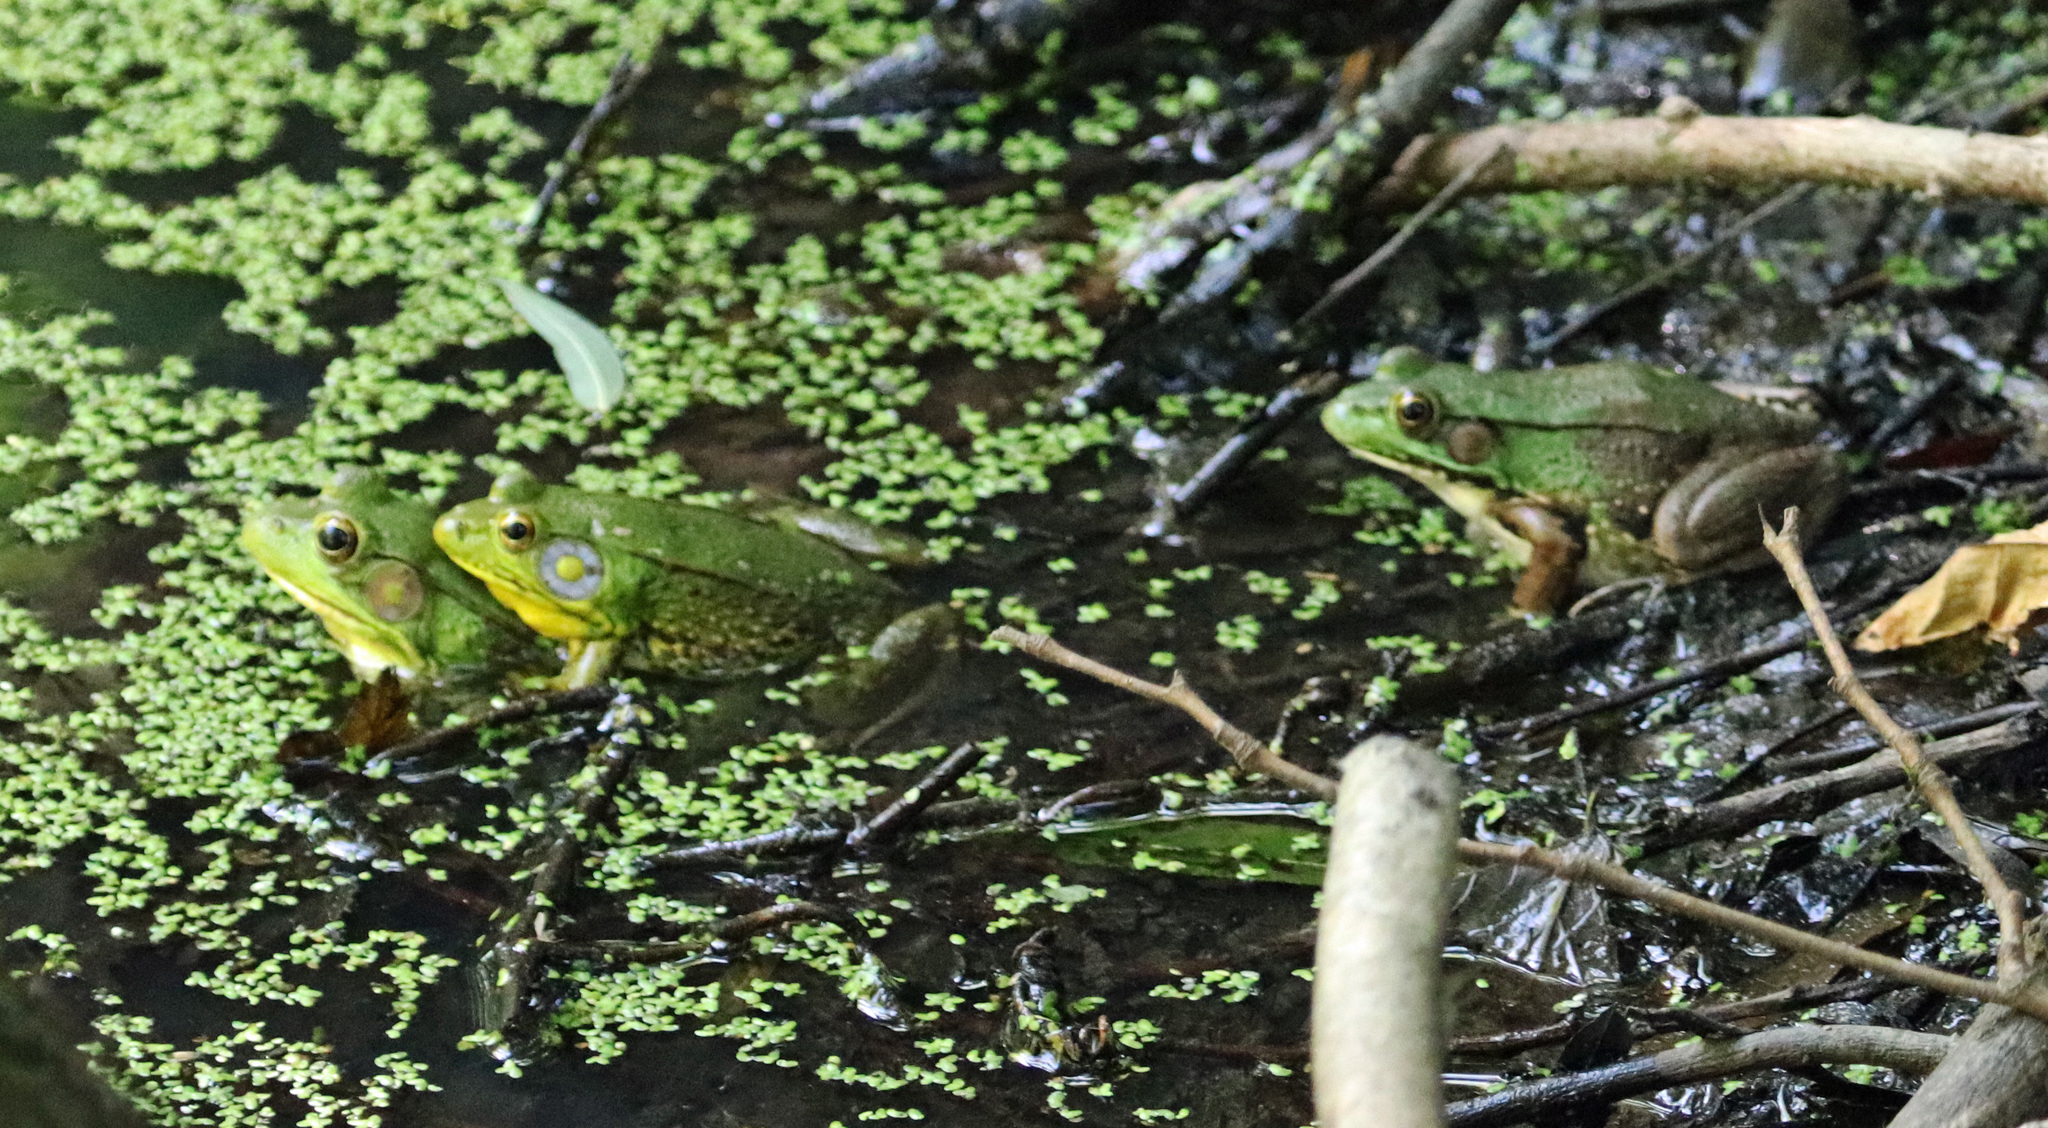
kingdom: Animalia
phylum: Chordata
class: Amphibia
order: Anura
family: Ranidae
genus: Lithobates
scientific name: Lithobates clamitans
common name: Green frog
